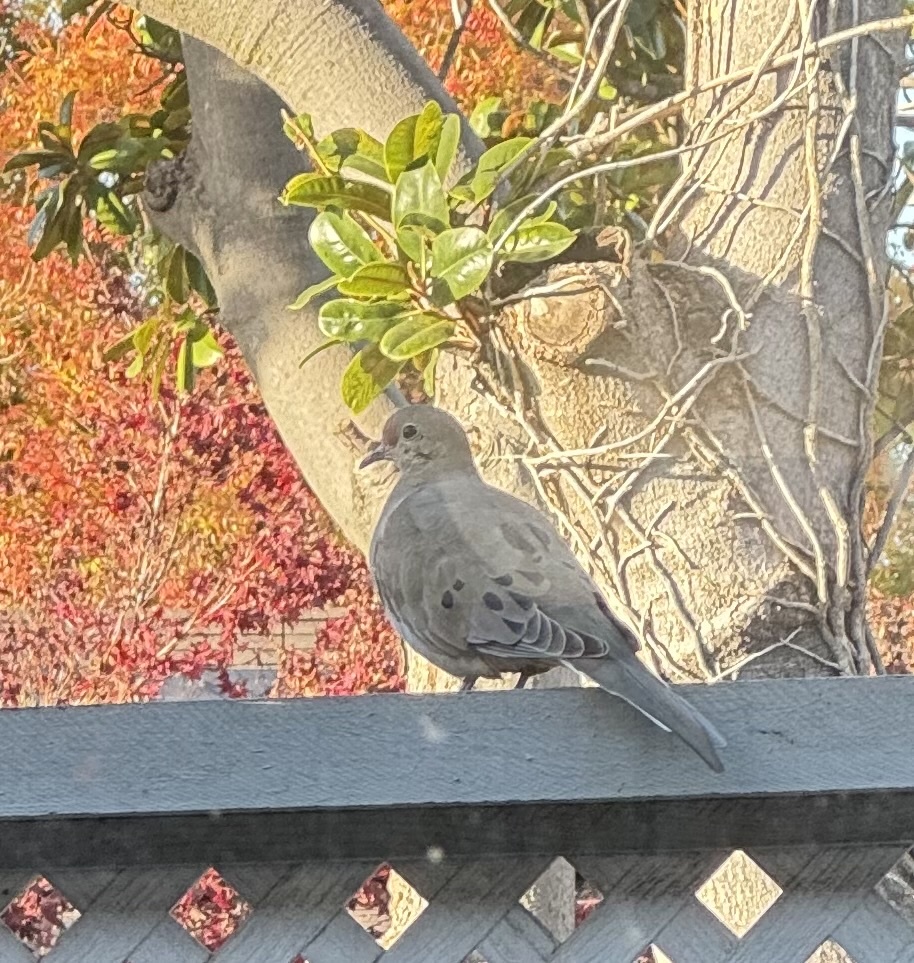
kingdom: Animalia
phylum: Chordata
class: Aves
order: Columbiformes
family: Columbidae
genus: Zenaida
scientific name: Zenaida macroura
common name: Mourning dove
